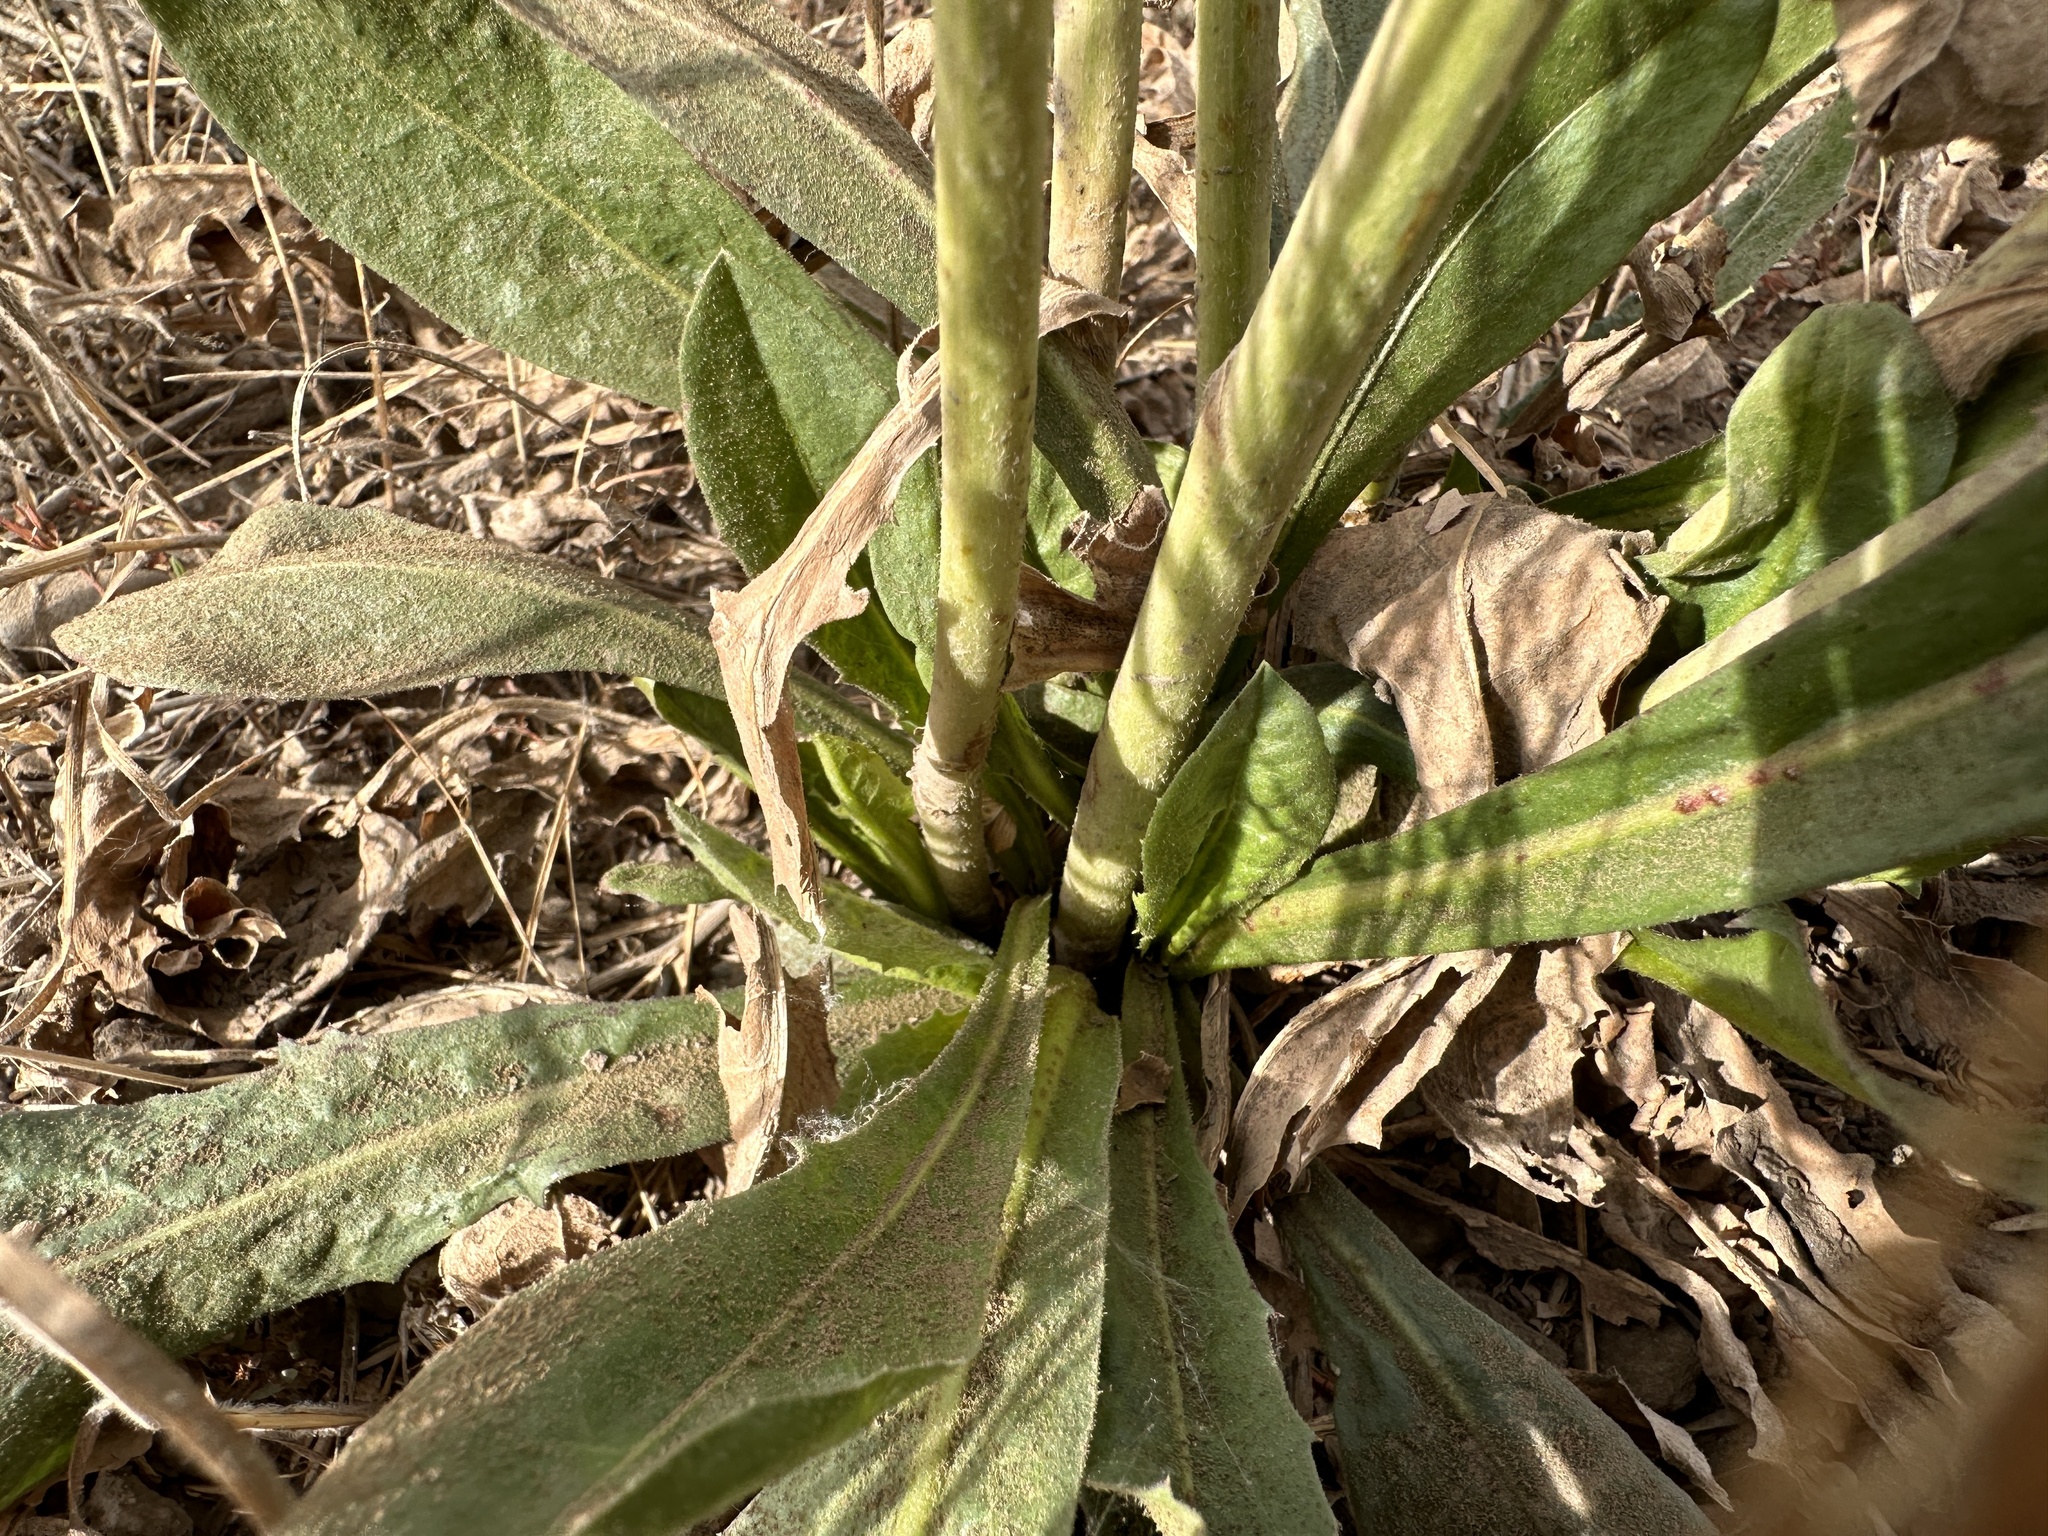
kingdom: Plantae
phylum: Tracheophyta
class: Magnoliopsida
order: Asterales
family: Asteraceae
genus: Cichorium
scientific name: Cichorium intybus
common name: Chicory
